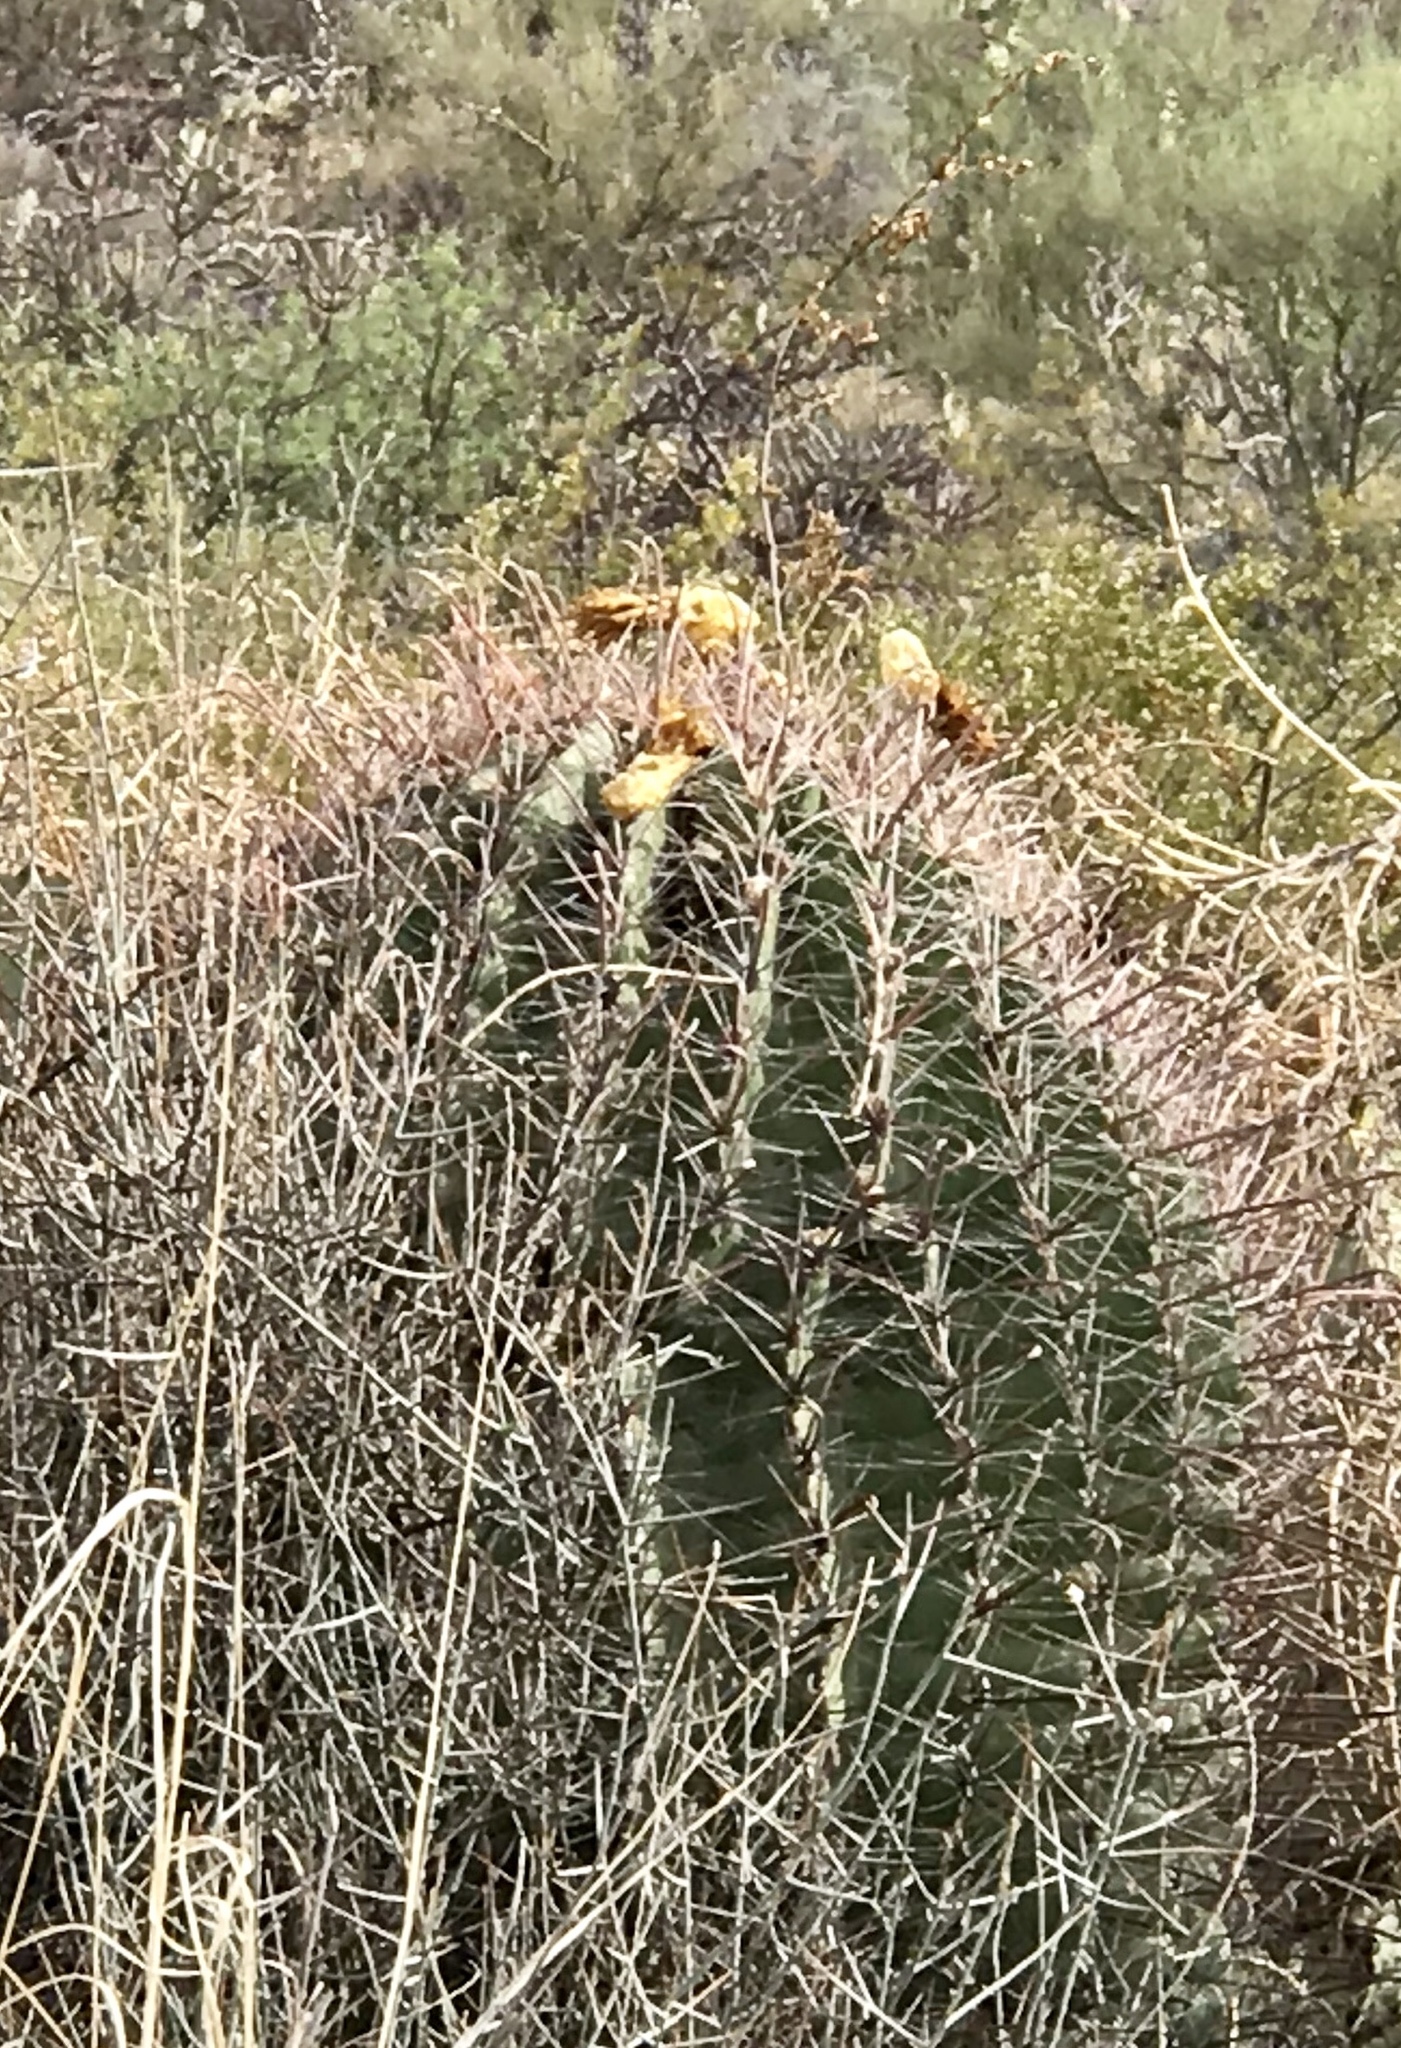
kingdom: Plantae
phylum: Tracheophyta
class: Magnoliopsida
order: Caryophyllales
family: Cactaceae
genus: Ferocactus
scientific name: Ferocactus wislizeni
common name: Candy barrel cactus
